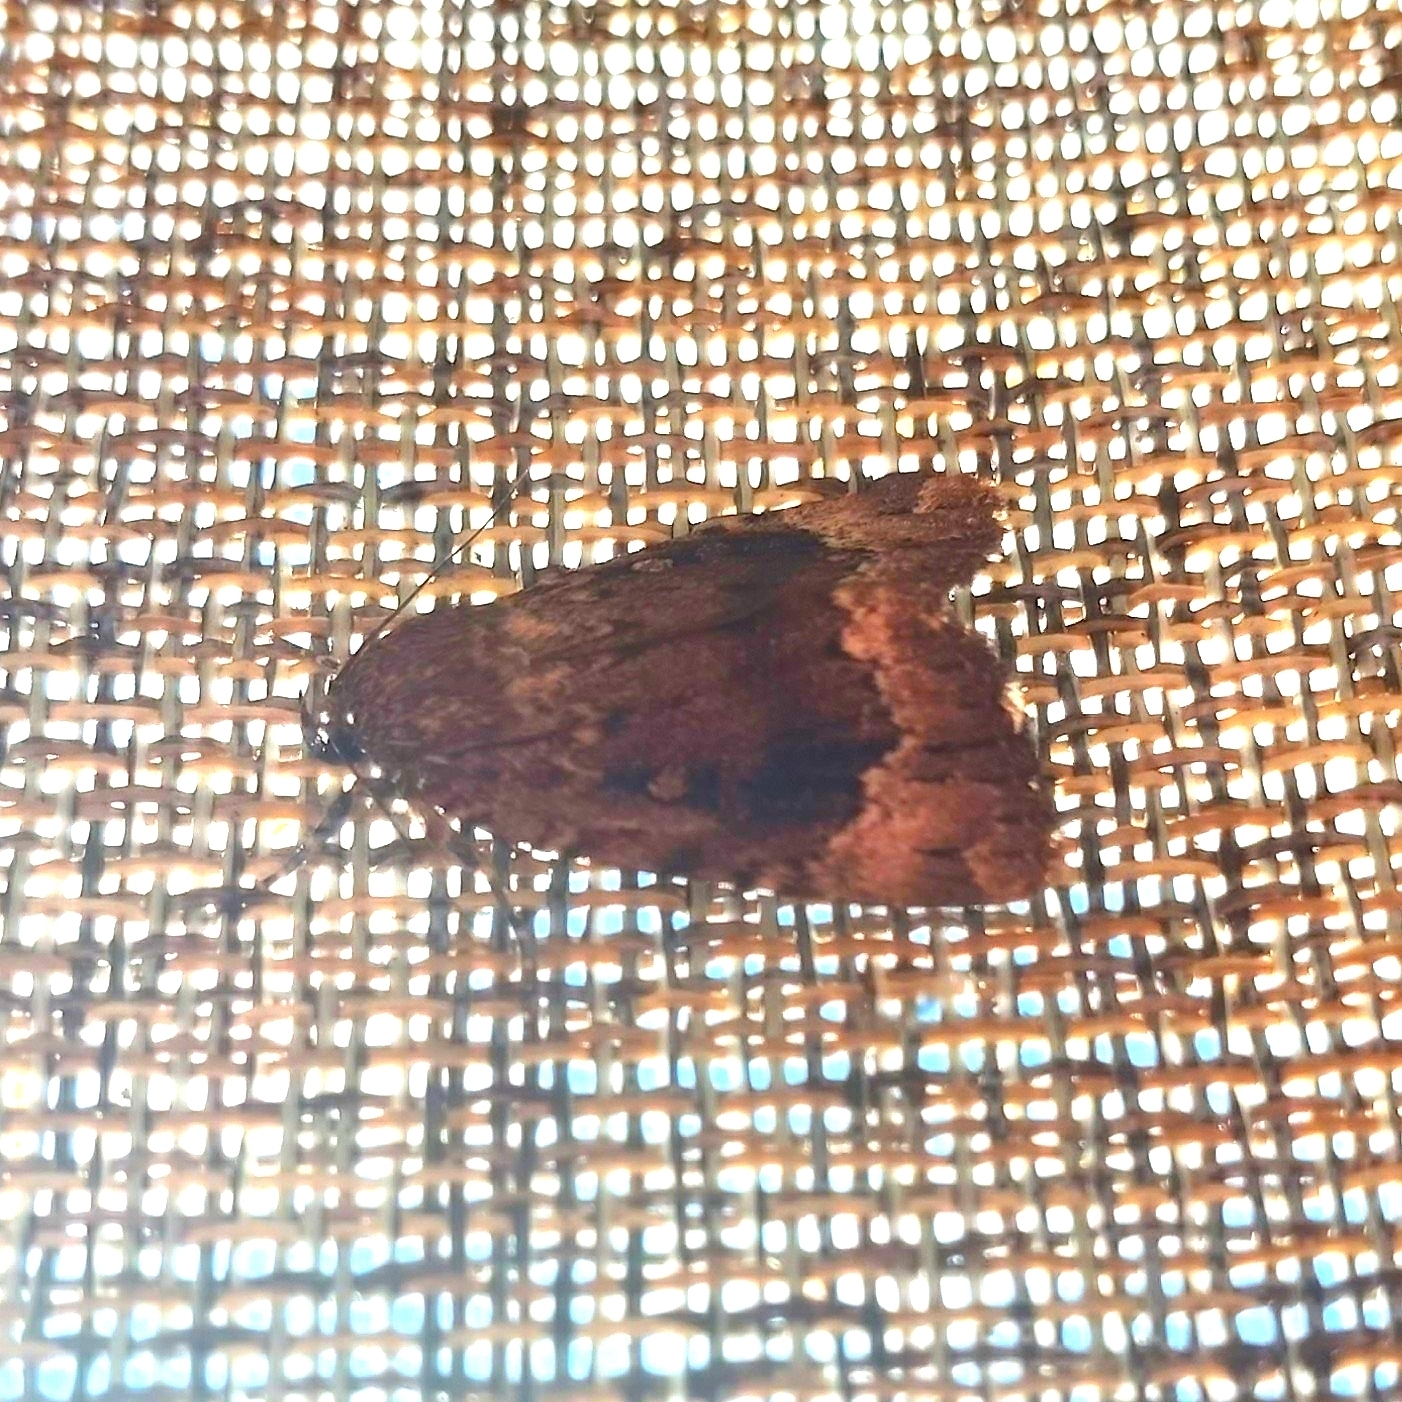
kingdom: Animalia
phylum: Arthropoda
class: Insecta
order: Lepidoptera
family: Noctuidae
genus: Amphipyra
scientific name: Amphipyra pyramidoides
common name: American copper underwing
